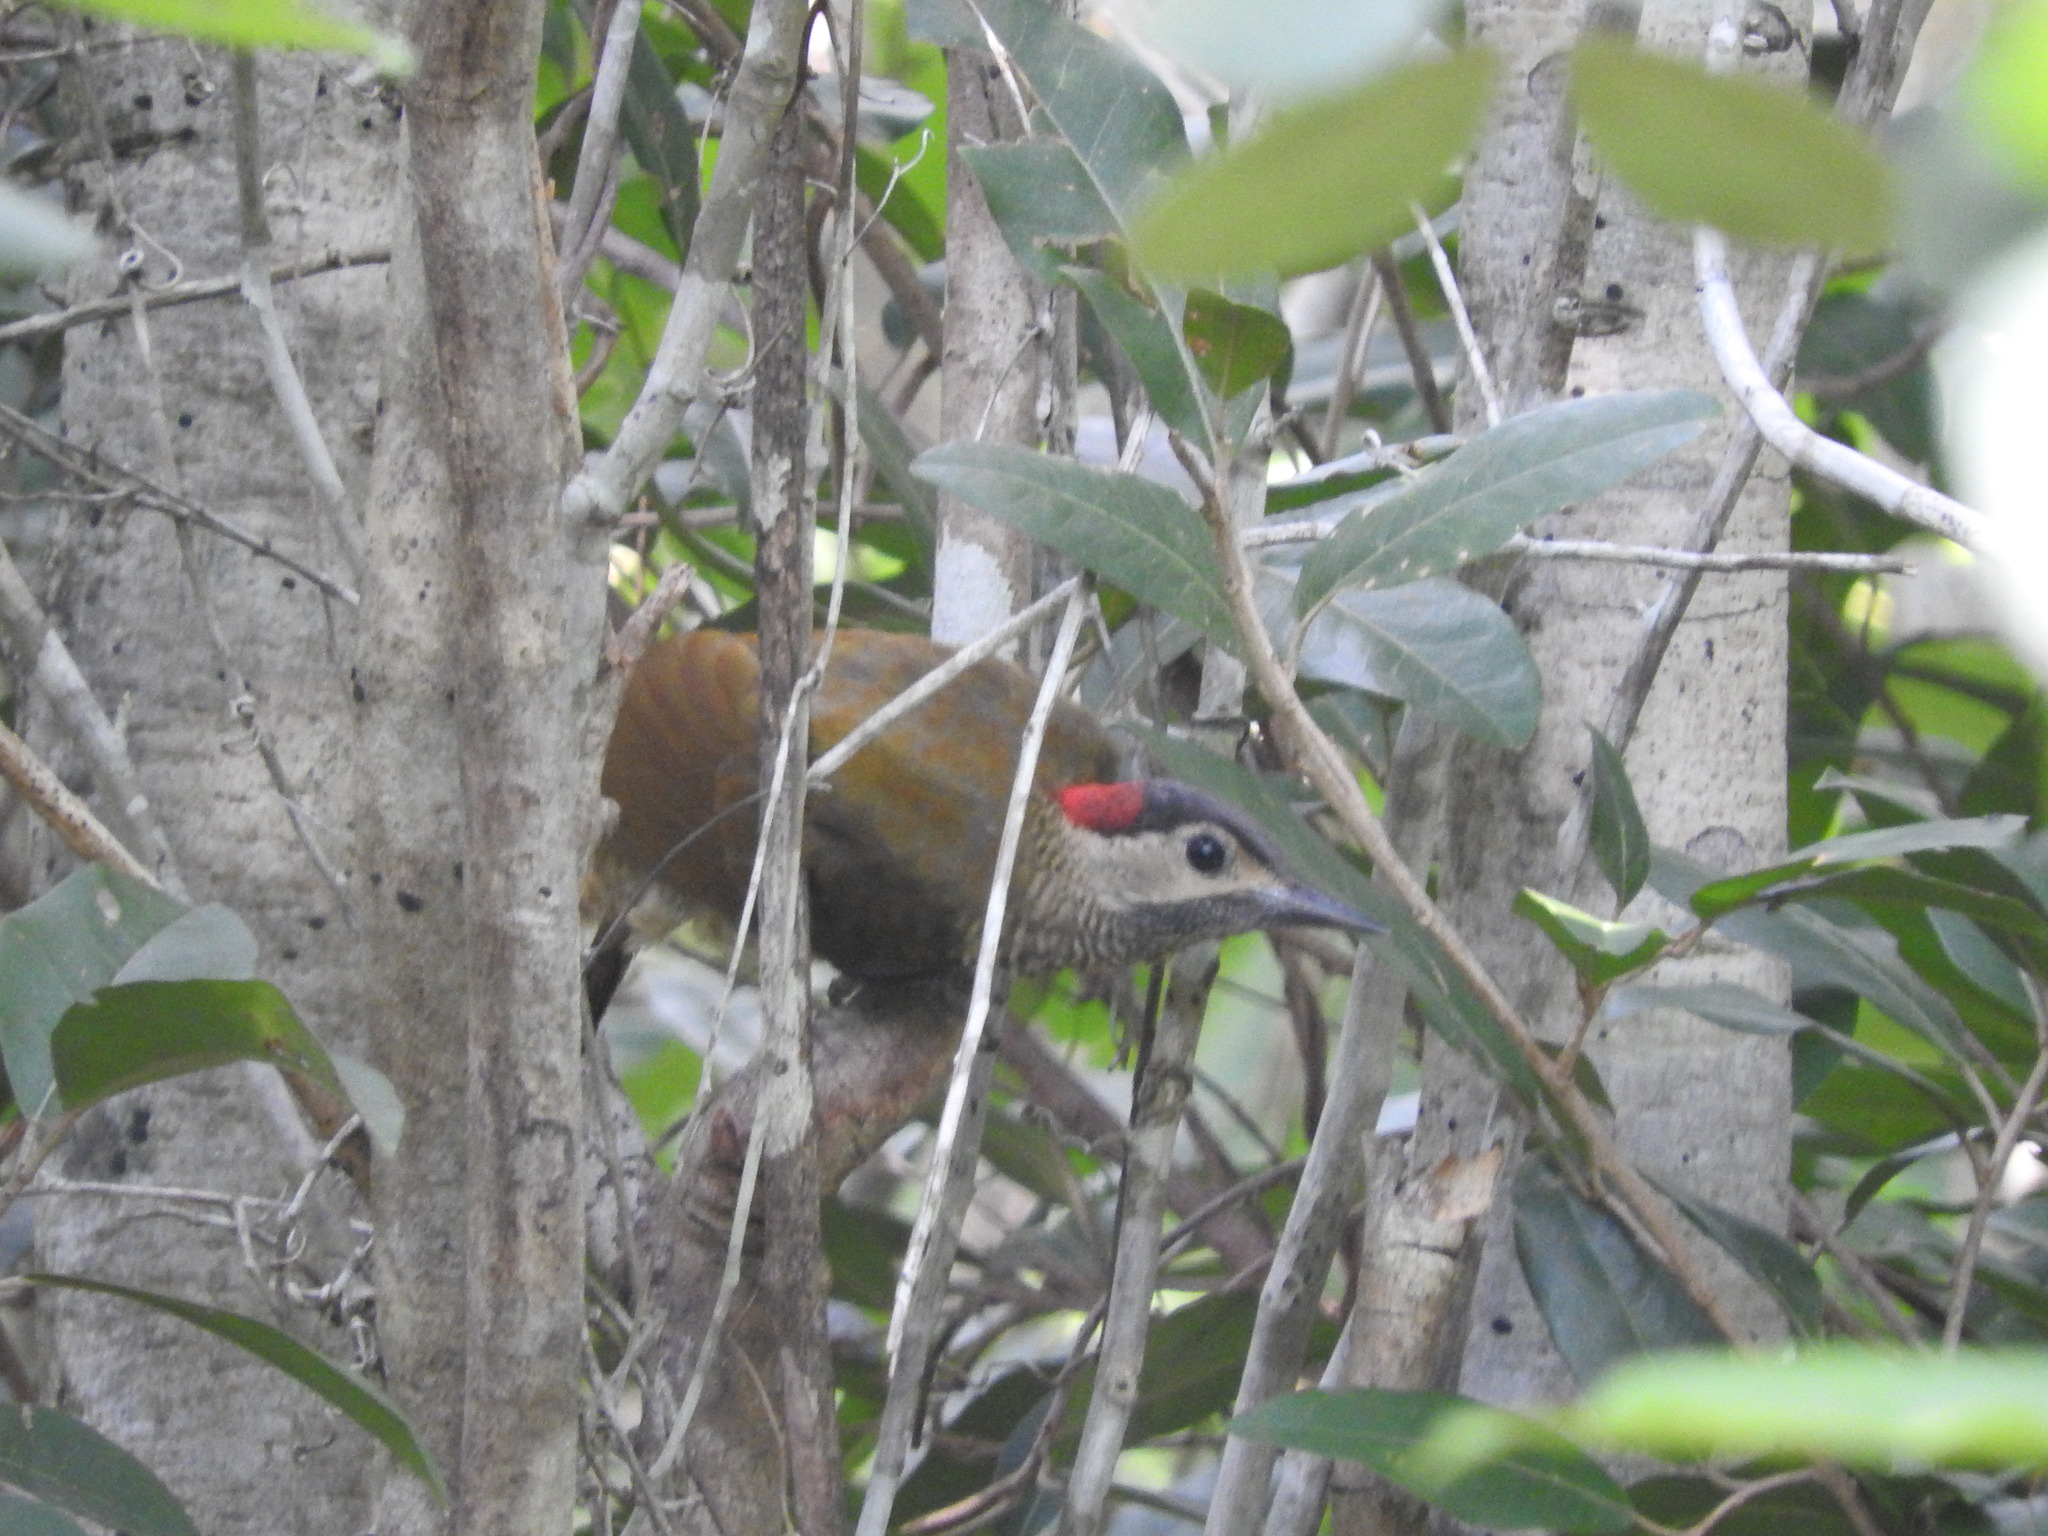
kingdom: Animalia
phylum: Chordata
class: Aves
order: Piciformes
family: Picidae
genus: Colaptes
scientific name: Colaptes rubiginosus
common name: Golden-olive woodpecker
